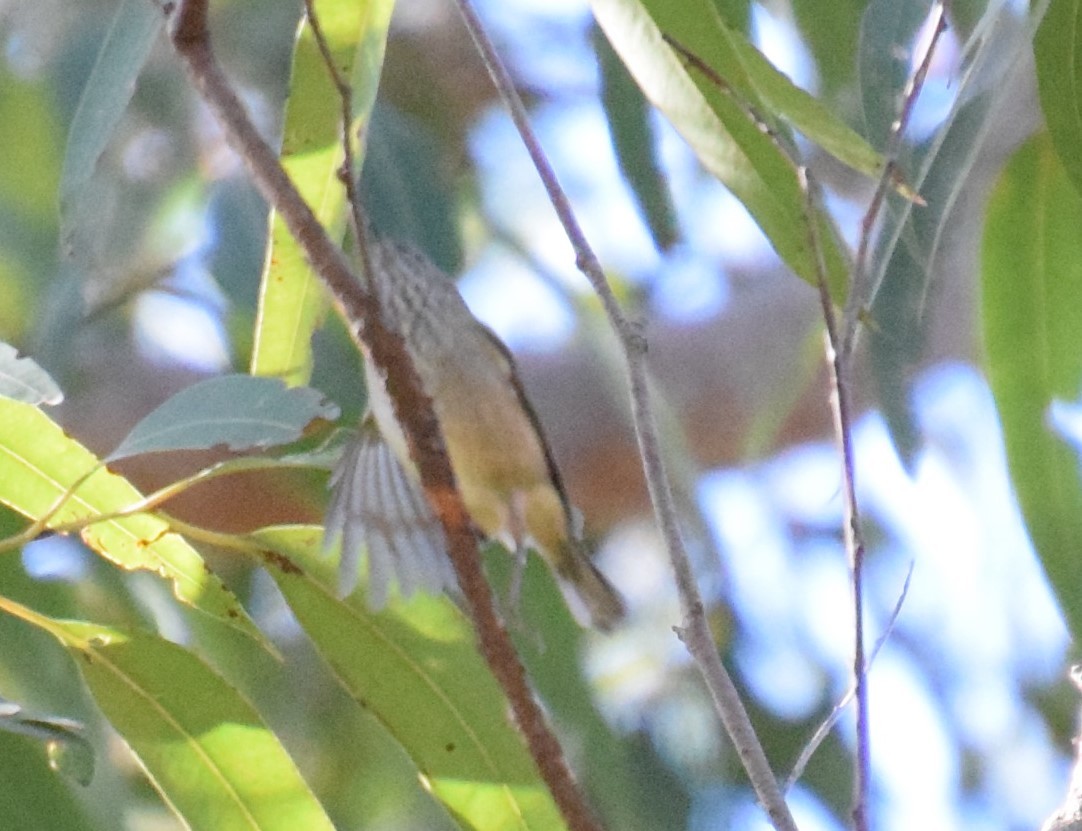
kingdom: Animalia
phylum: Chordata
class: Aves
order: Passeriformes
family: Acanthizidae
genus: Acanthiza
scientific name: Acanthiza pusilla
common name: Brown thornbill
